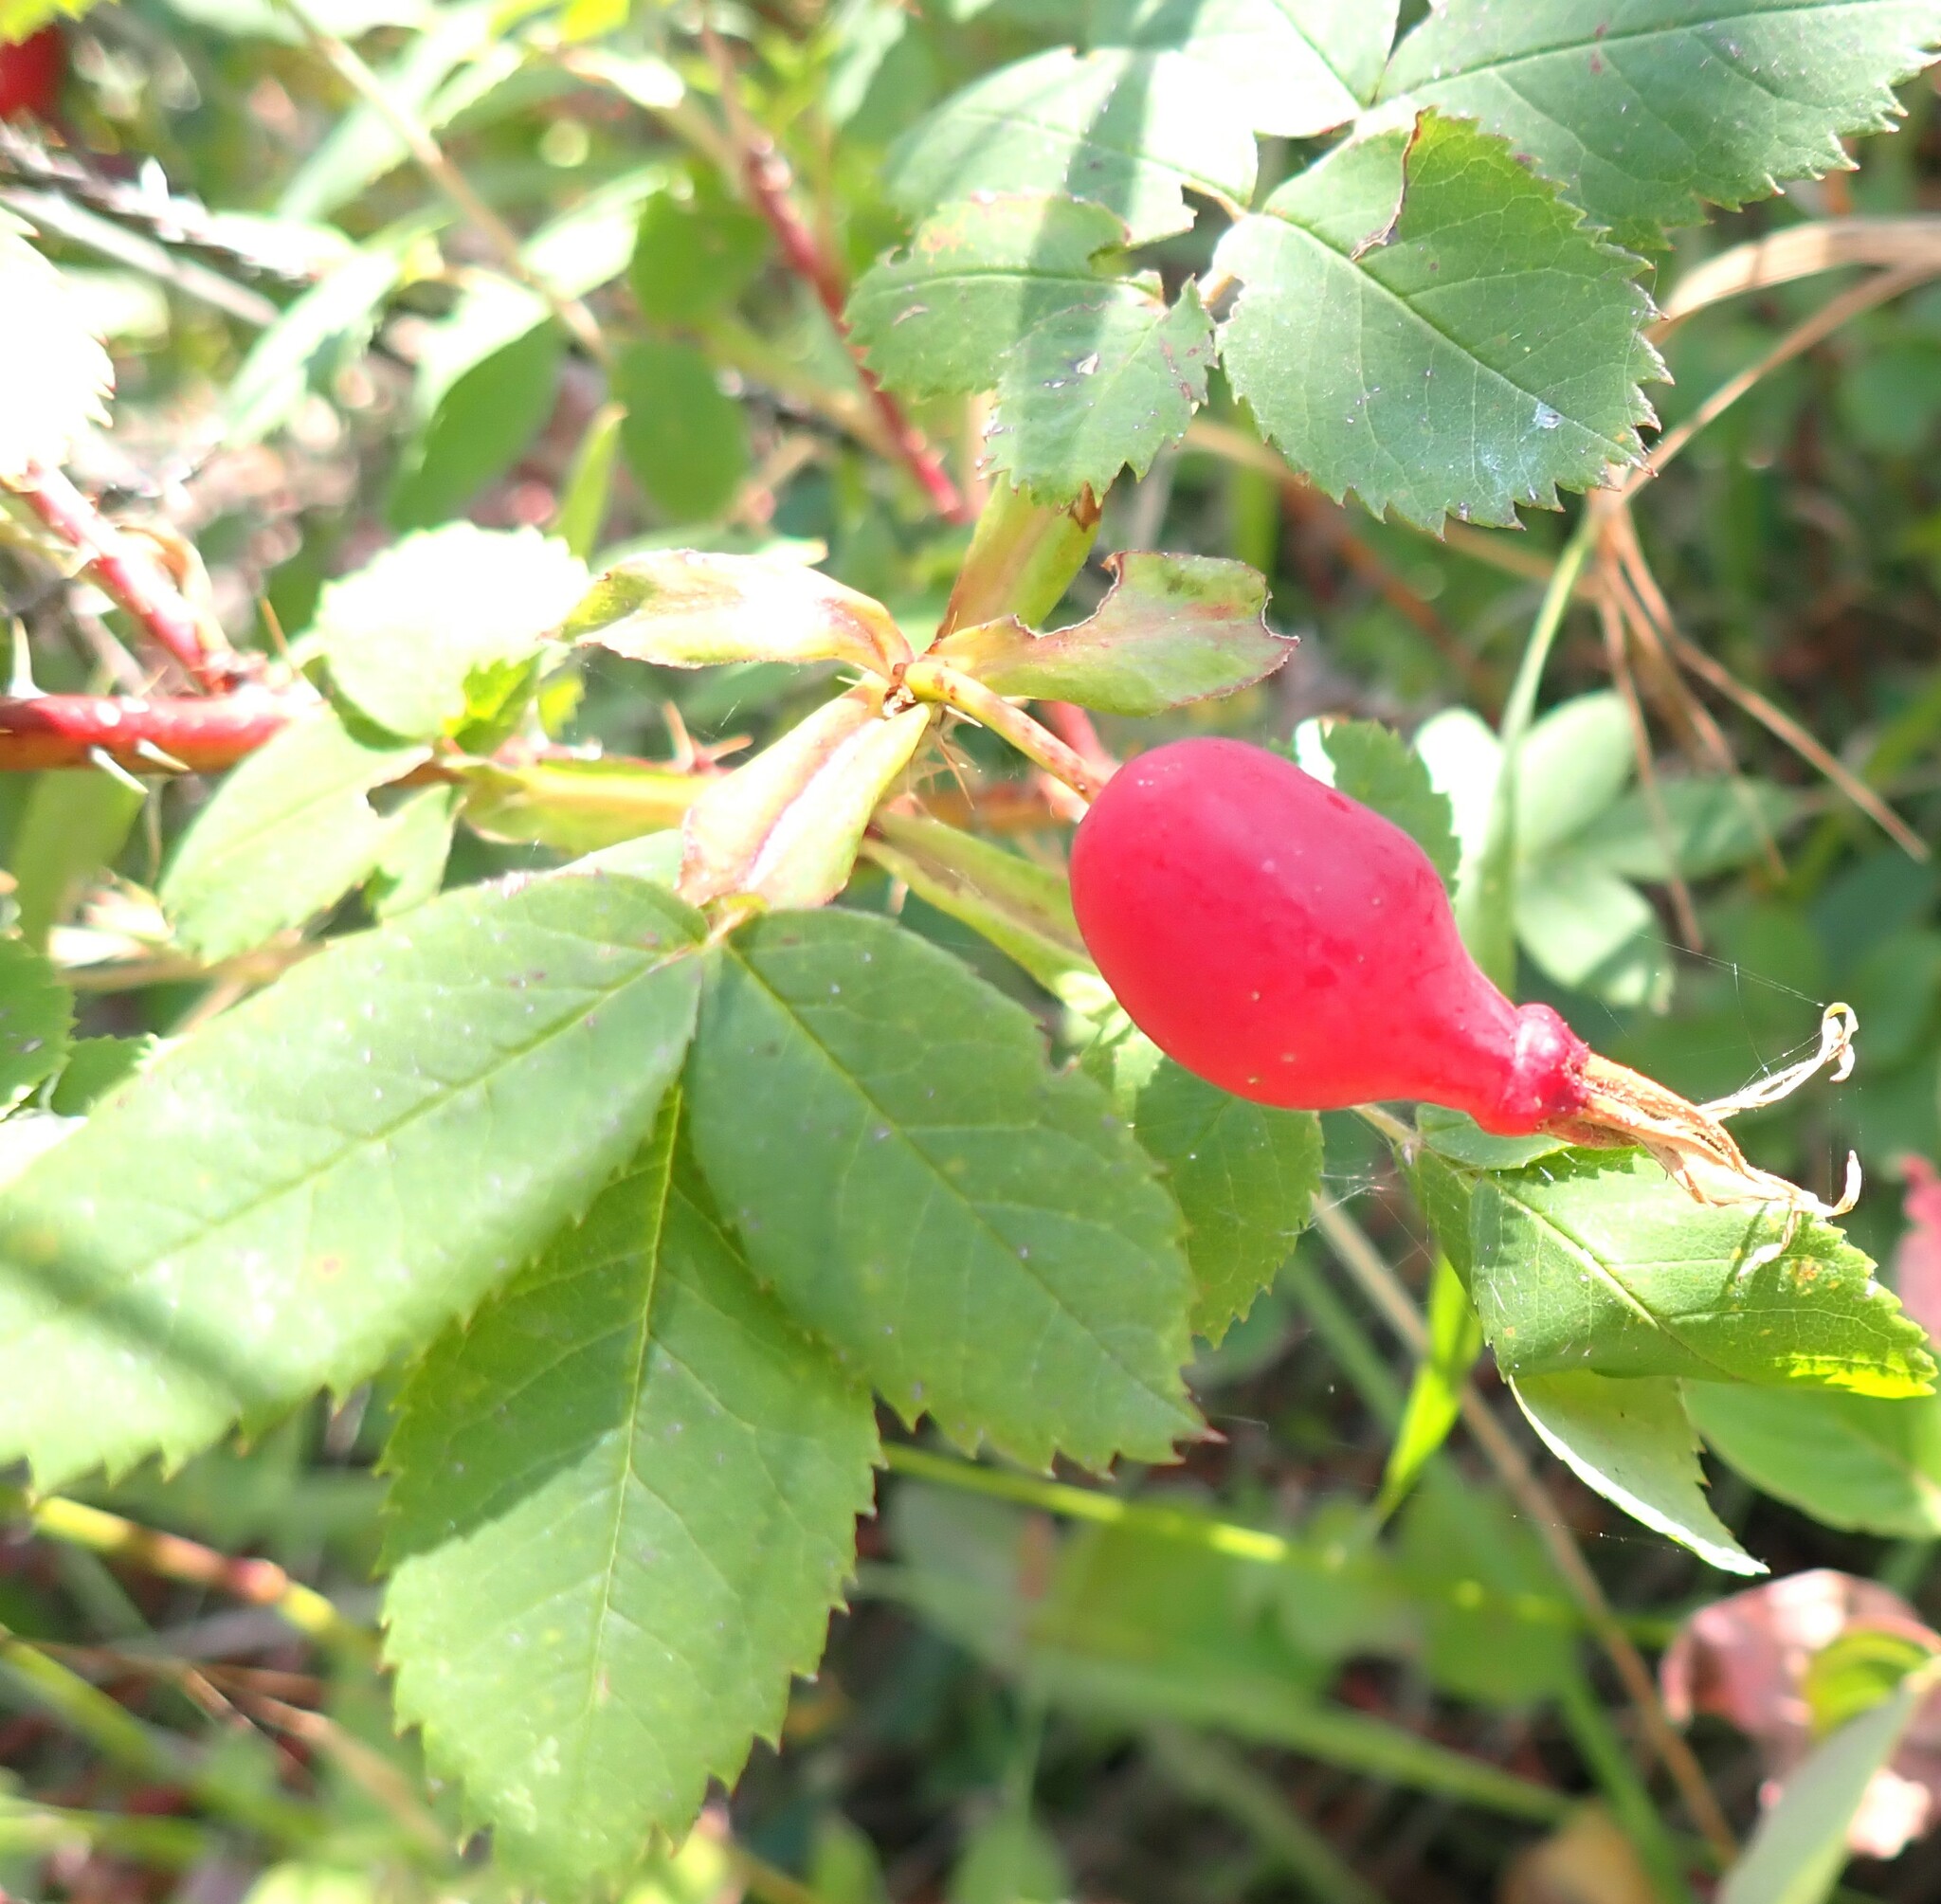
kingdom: Plantae
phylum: Tracheophyta
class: Magnoliopsida
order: Rosales
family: Rosaceae
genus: Rosa
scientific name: Rosa acicularis
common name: Prickly rose
